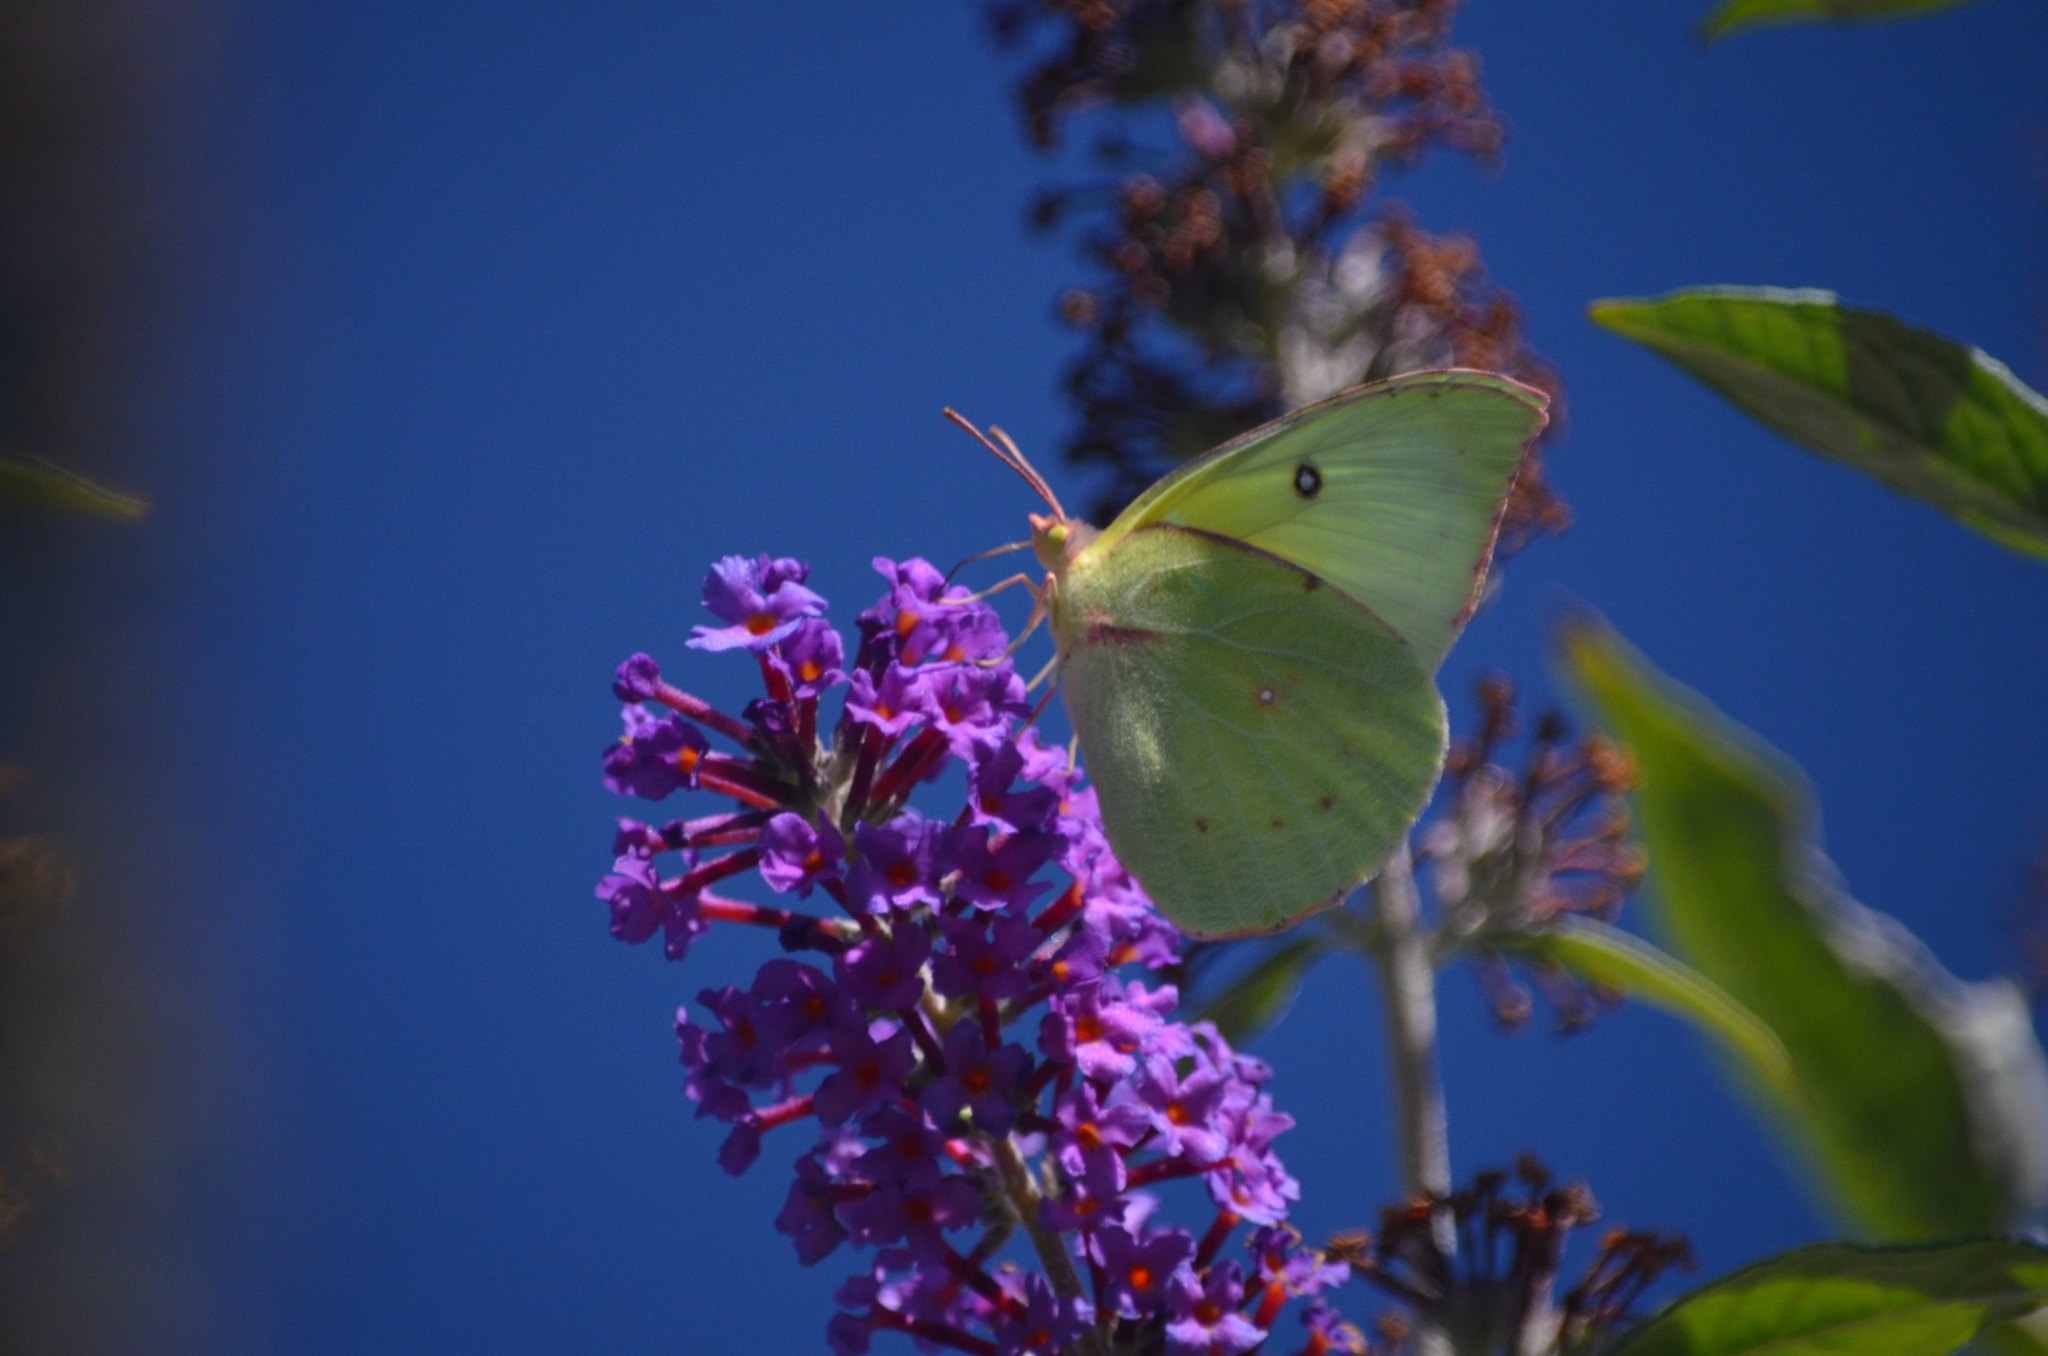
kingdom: Animalia
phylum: Arthropoda
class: Insecta
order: Lepidoptera
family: Pieridae
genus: Zerene
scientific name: Zerene eurydice
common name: California dogface
